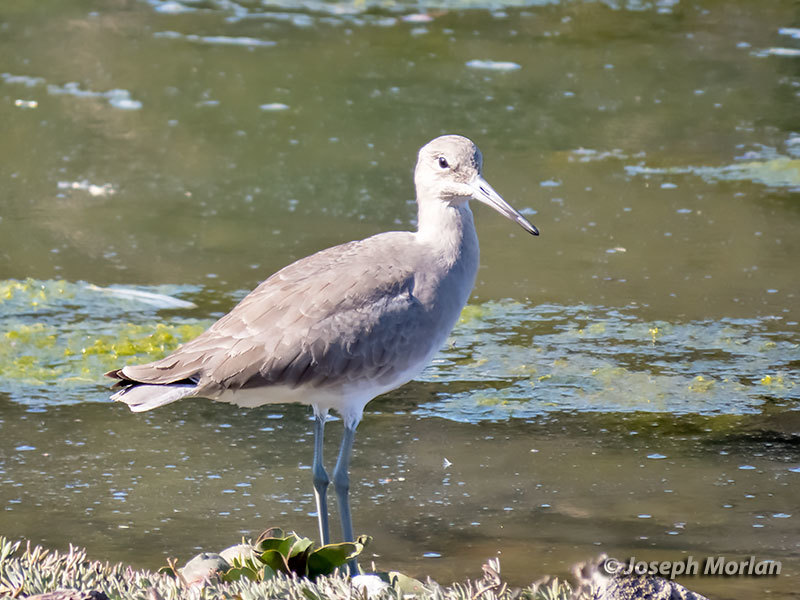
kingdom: Animalia
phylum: Chordata
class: Aves
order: Charadriiformes
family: Scolopacidae
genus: Tringa
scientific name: Tringa semipalmata
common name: Willet
